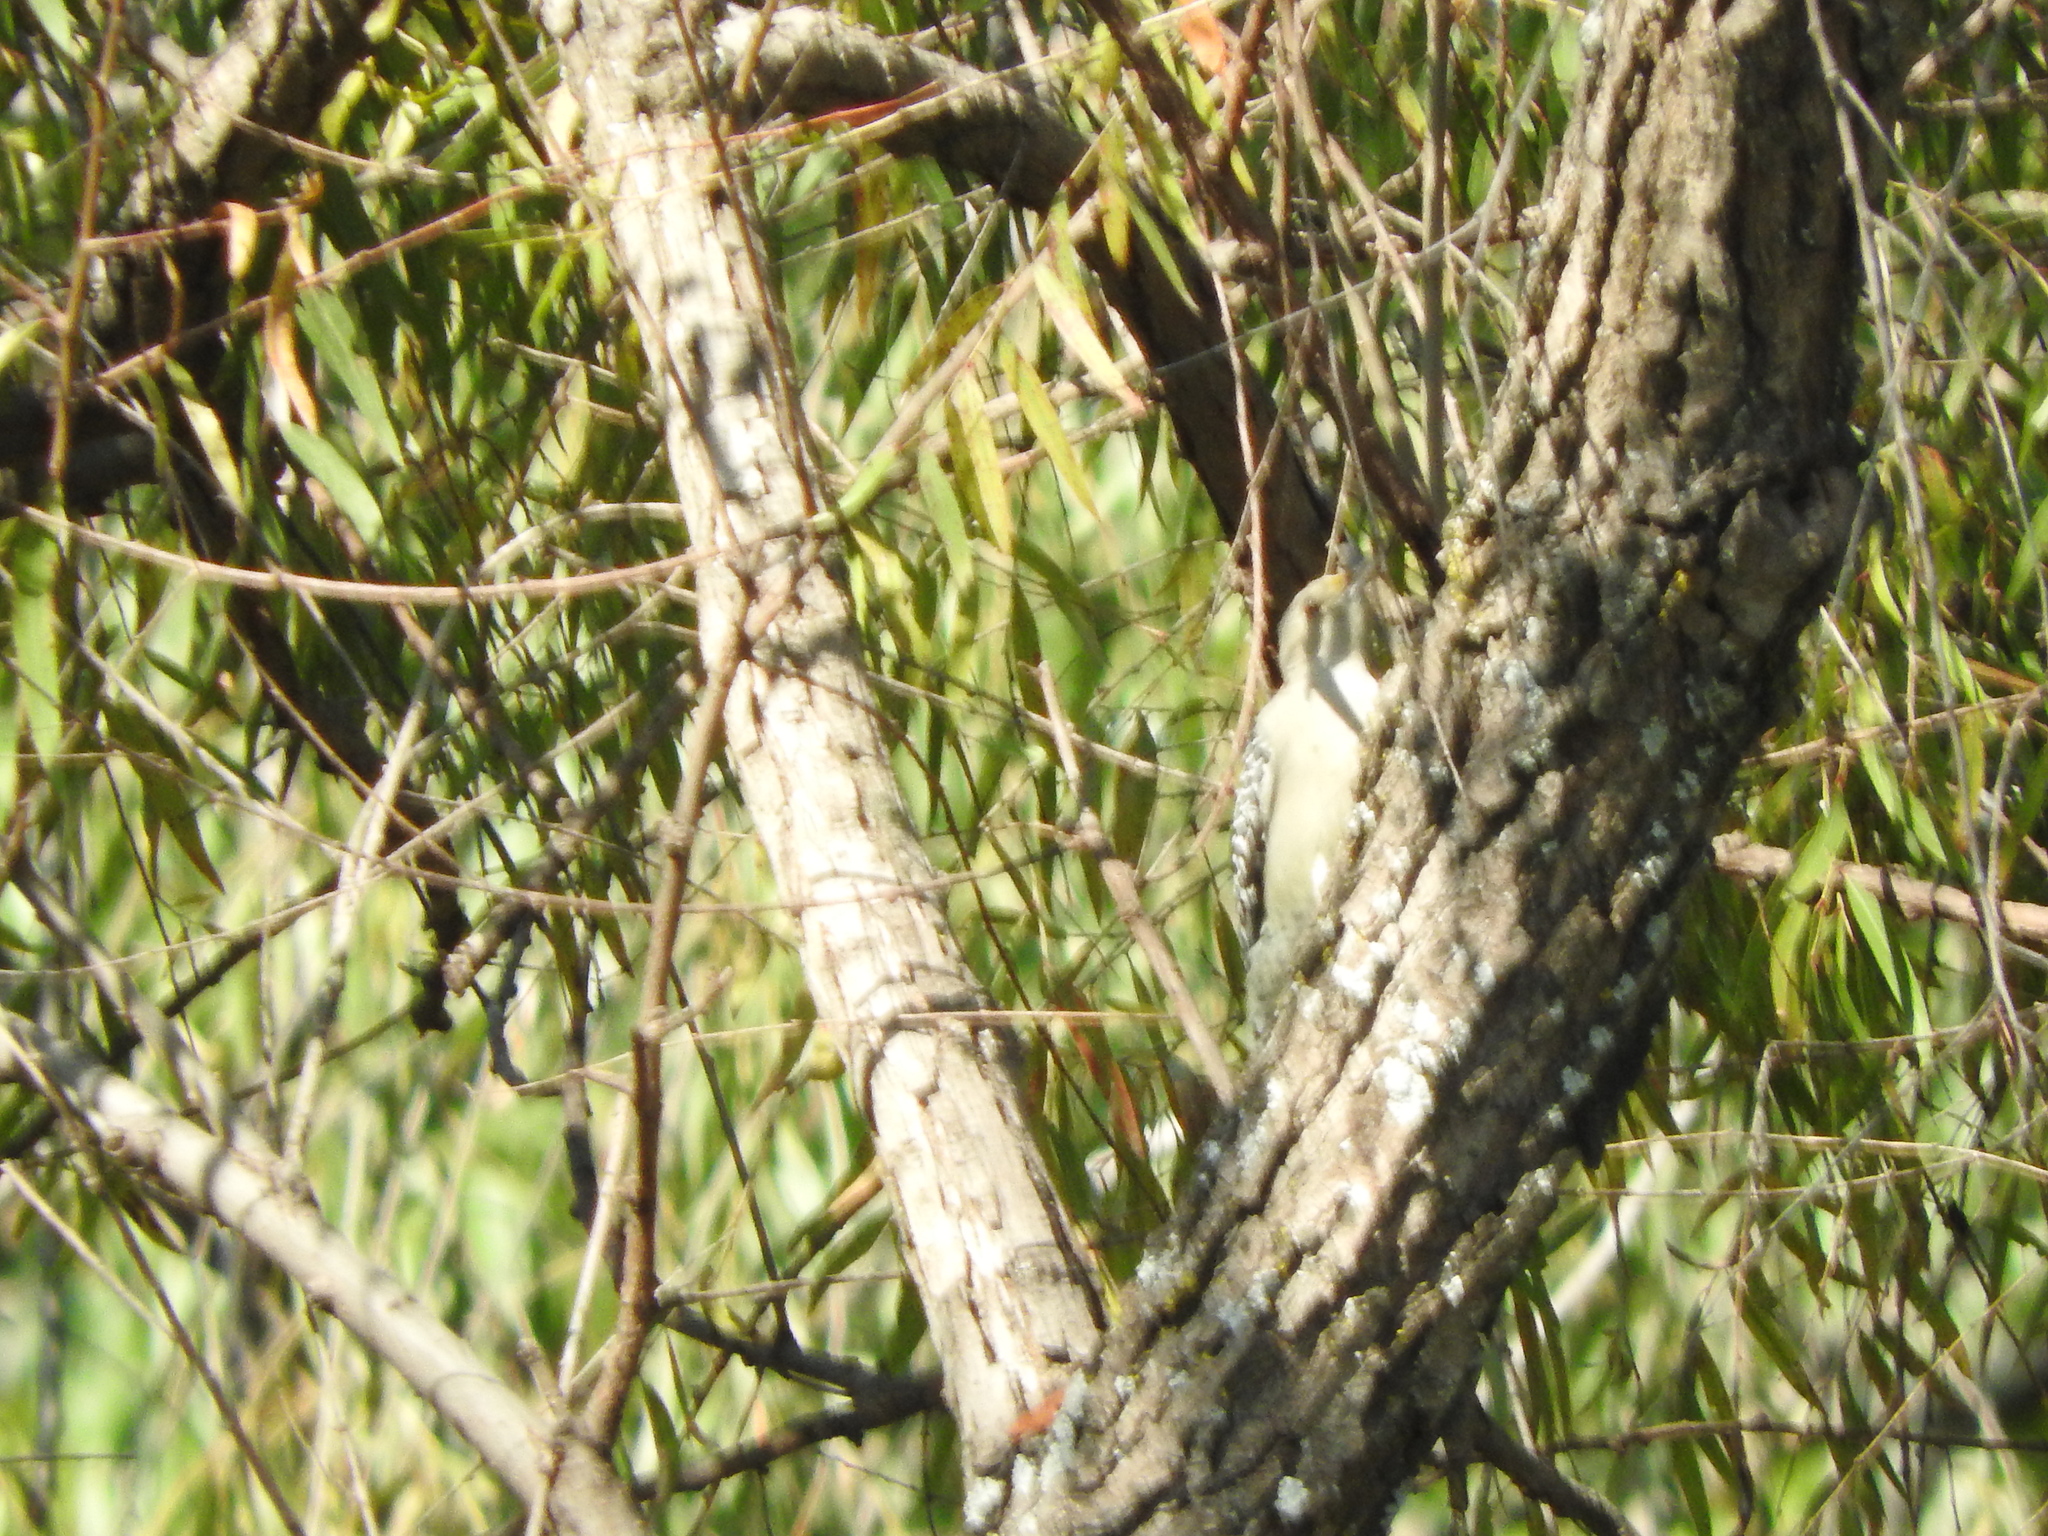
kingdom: Animalia
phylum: Chordata
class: Aves
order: Piciformes
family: Picidae
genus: Melanerpes
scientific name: Melanerpes aurifrons
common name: Golden-fronted woodpecker
